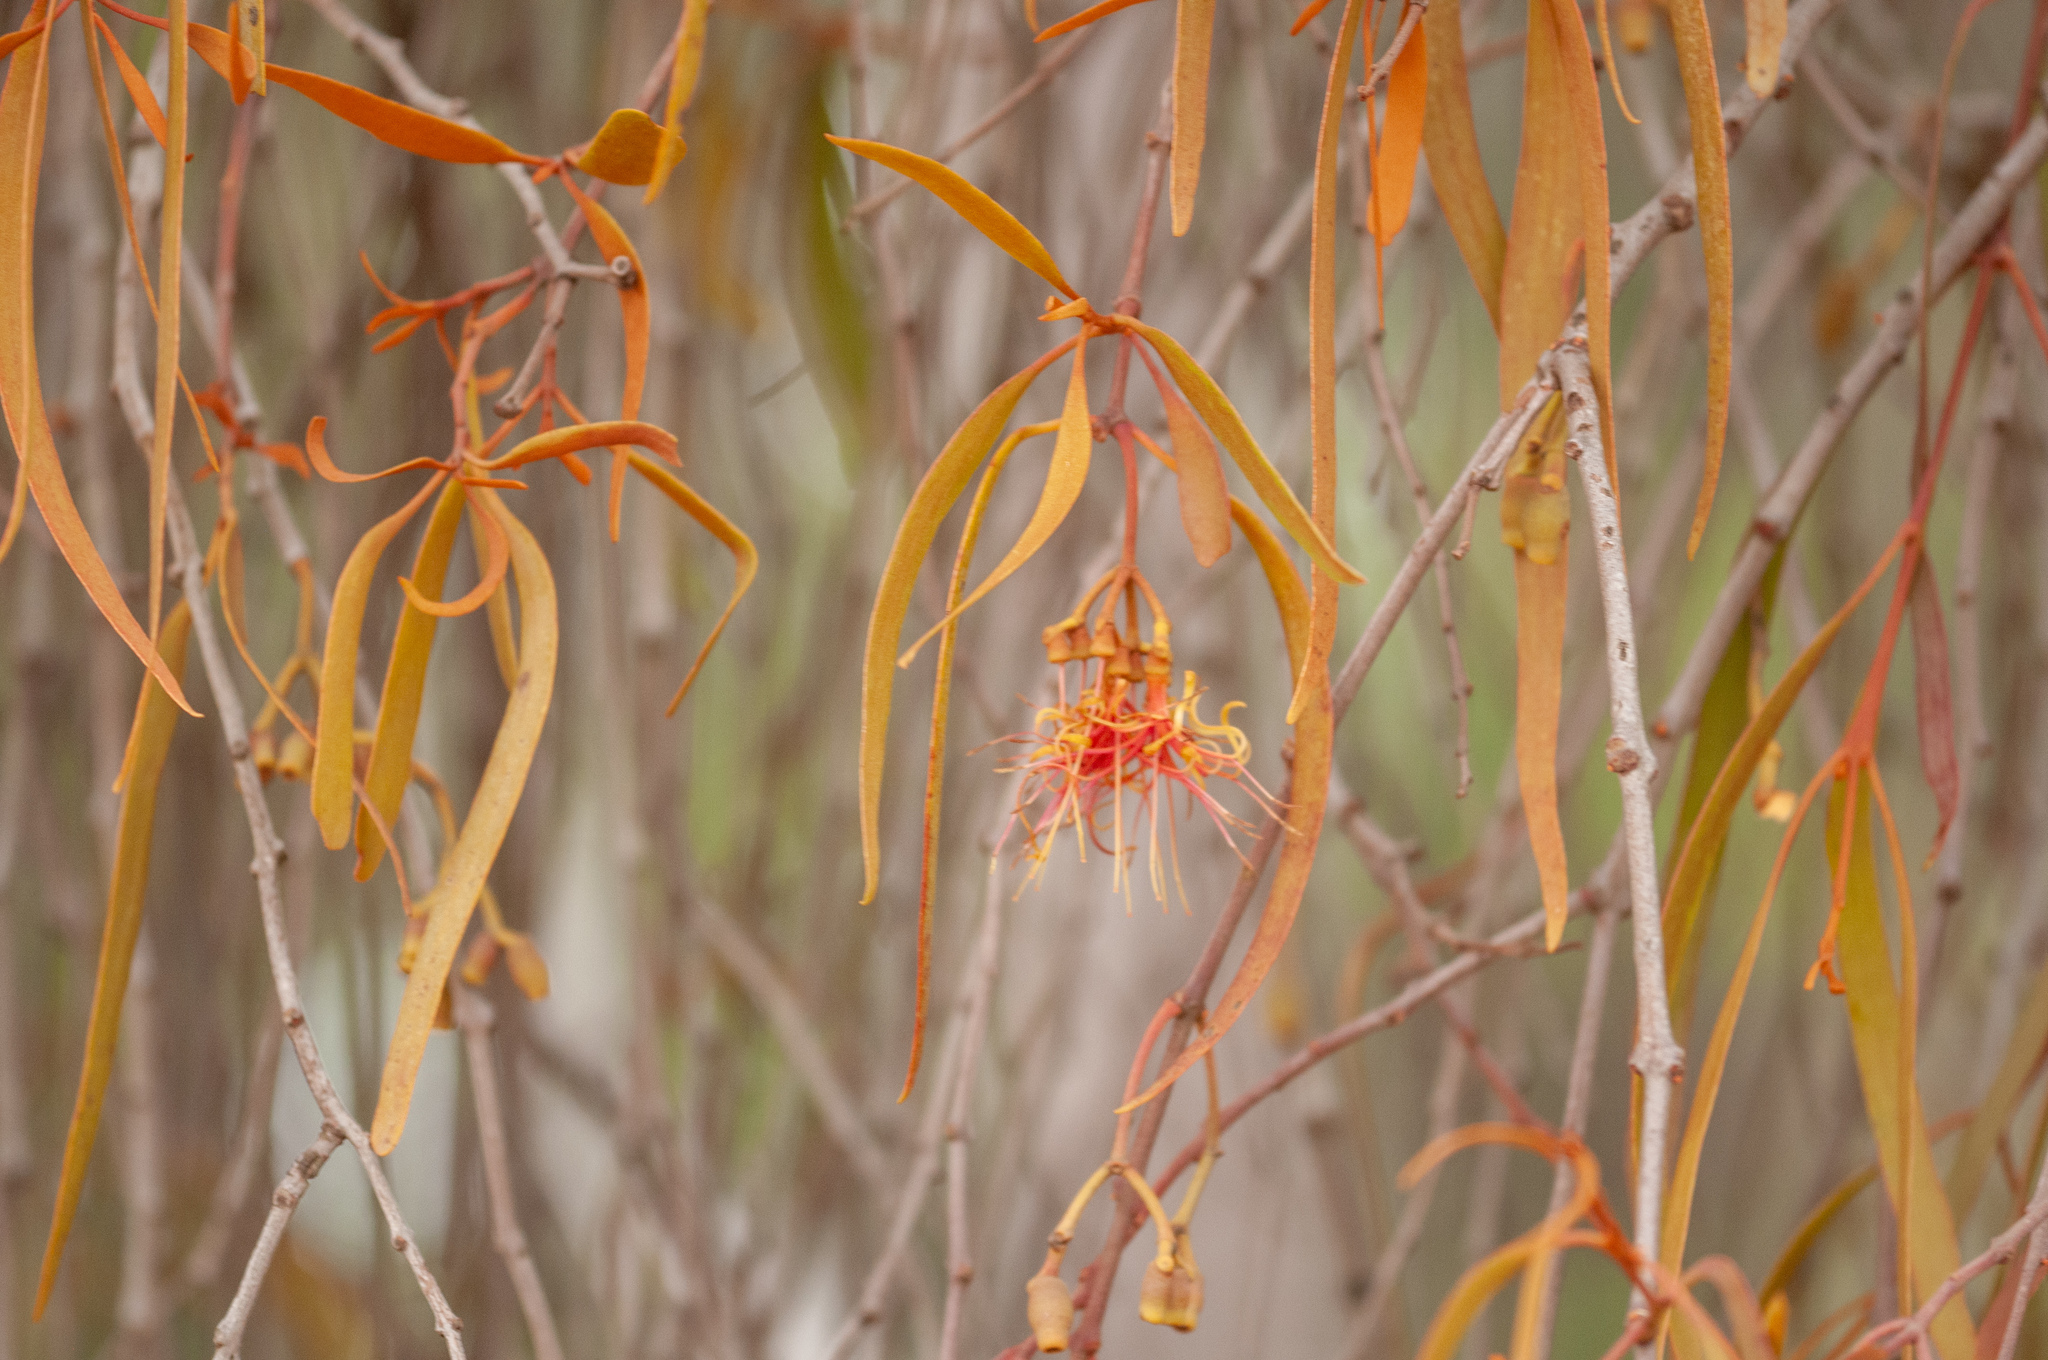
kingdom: Plantae
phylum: Tracheophyta
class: Magnoliopsida
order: Santalales
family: Loranthaceae
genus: Amyema
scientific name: Amyema pendula
